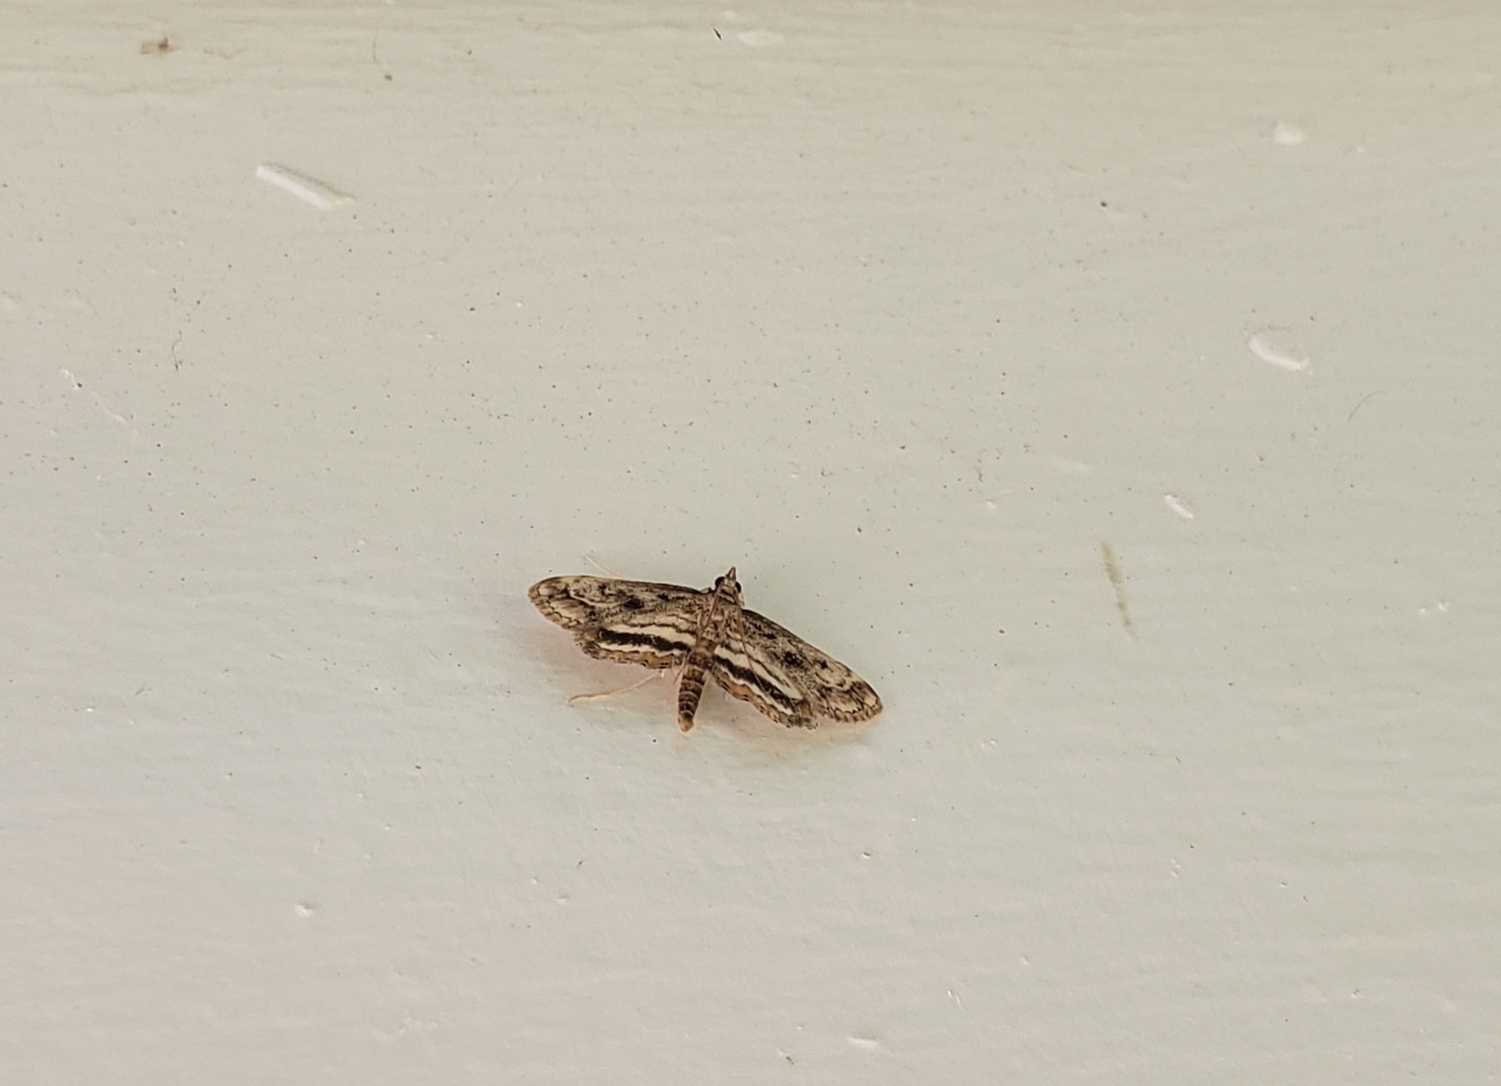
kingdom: Animalia
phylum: Arthropoda
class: Insecta
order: Lepidoptera
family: Crambidae
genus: Parapoynx
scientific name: Parapoynx obscuralis
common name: American china-mark
